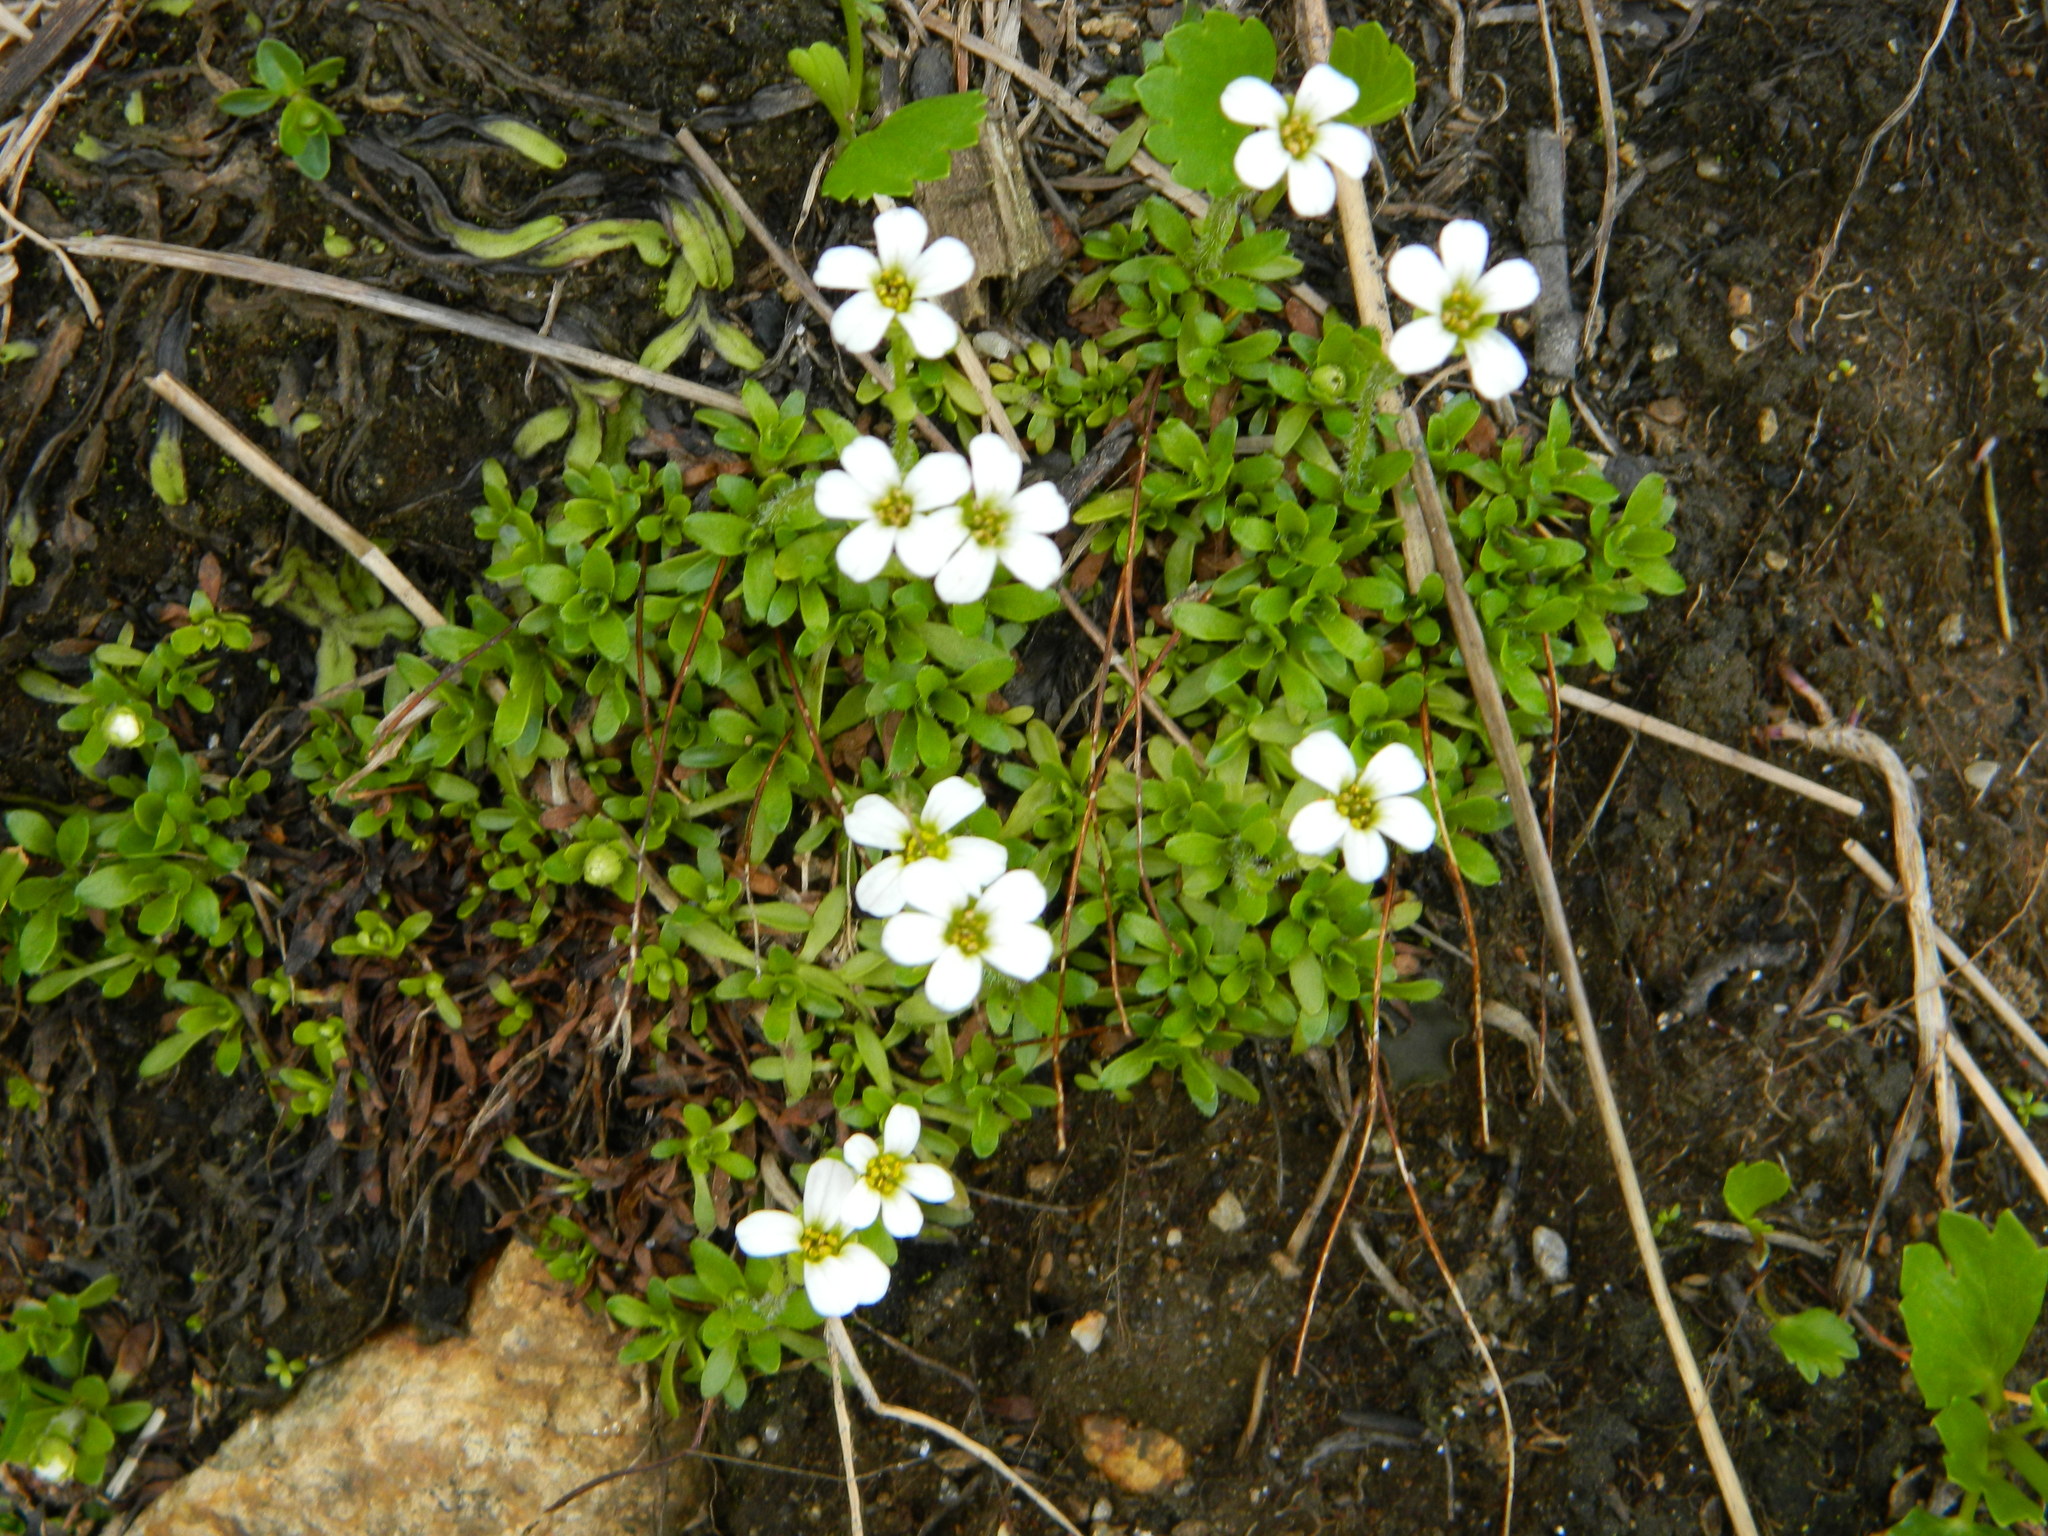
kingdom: Plantae
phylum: Tracheophyta
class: Magnoliopsida
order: Saxifragales
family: Saxifragaceae
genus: Saxifraga
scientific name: Saxifraga androsacea
